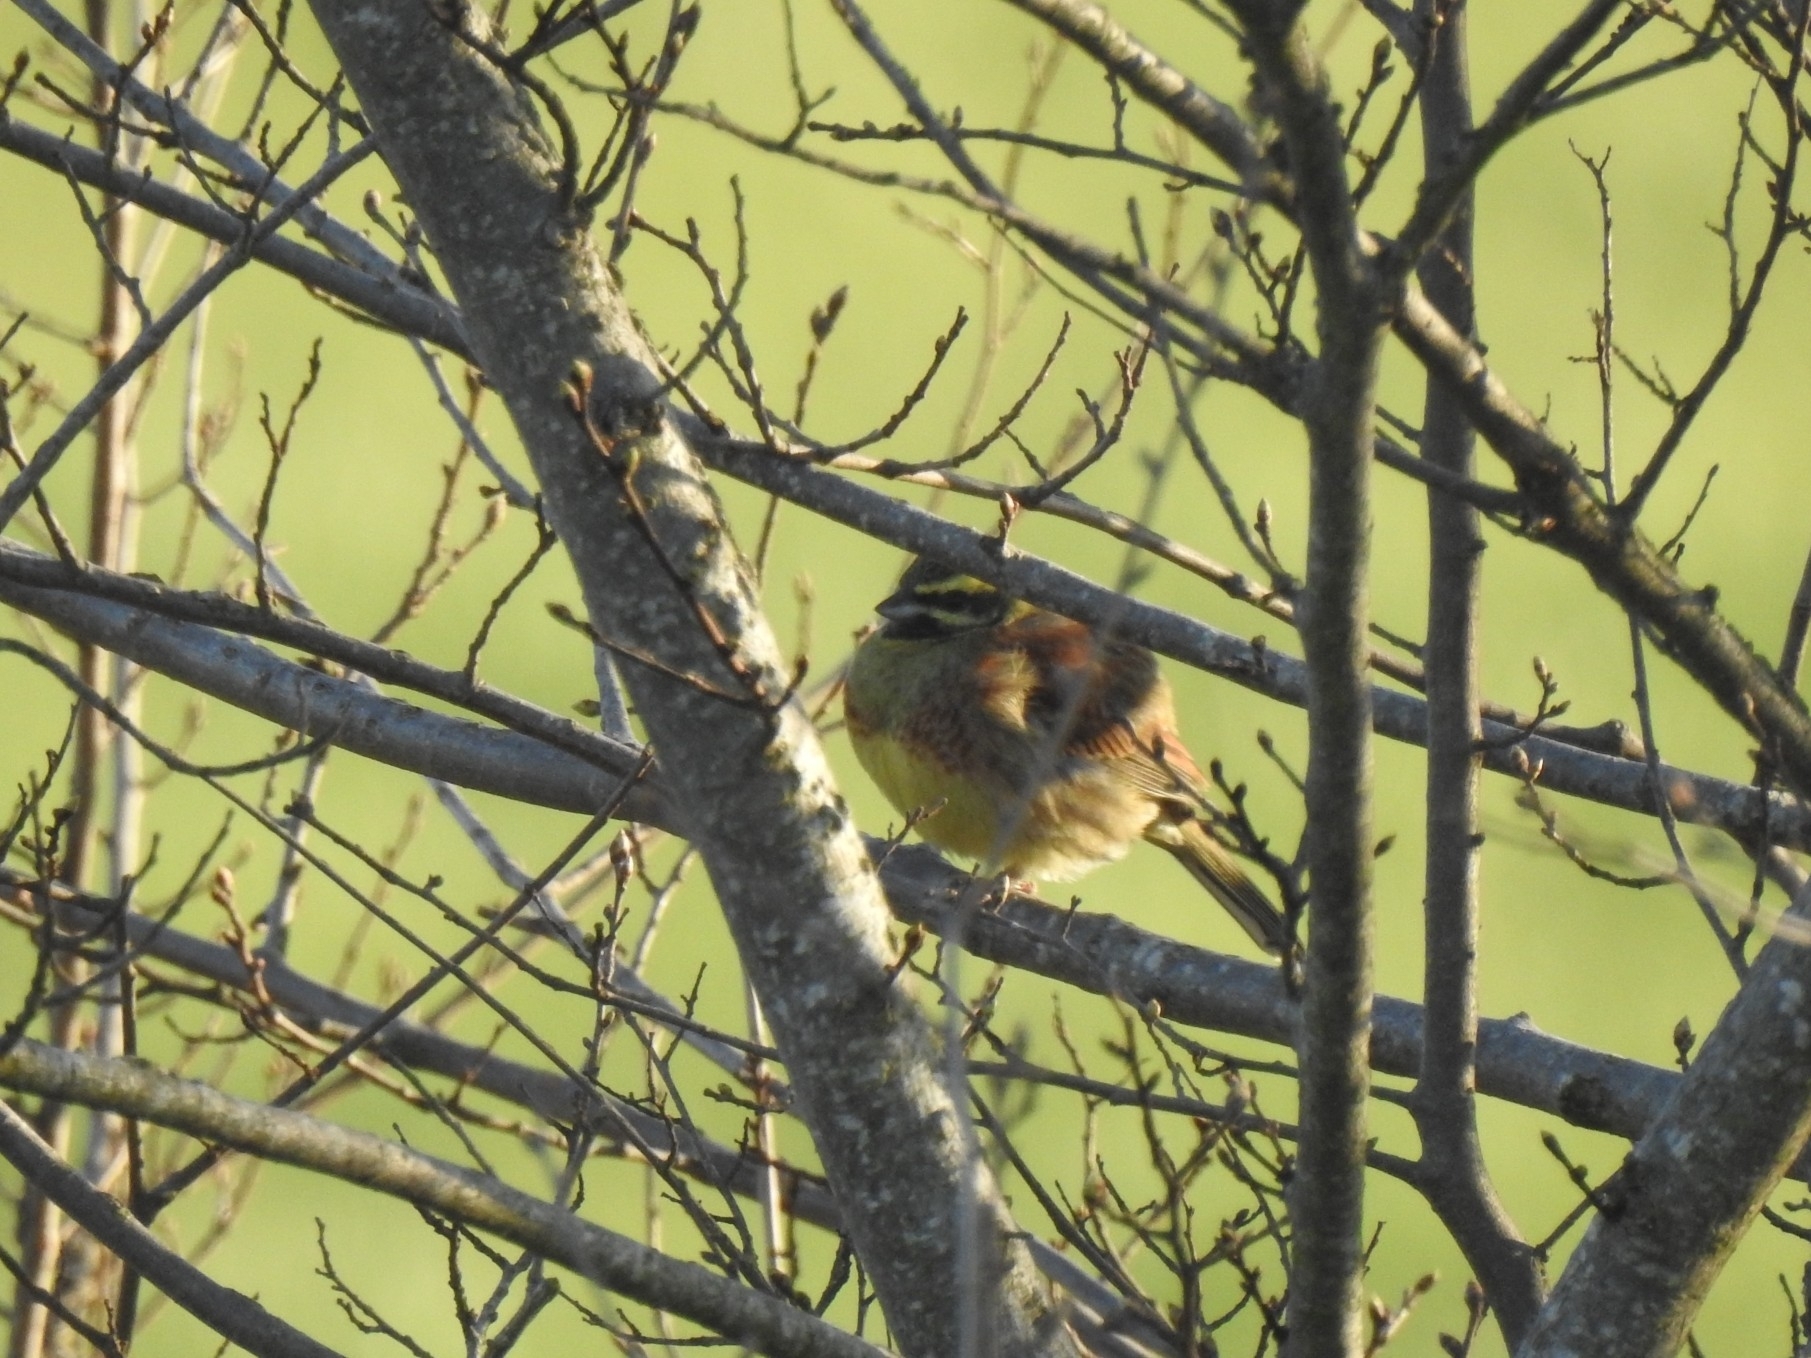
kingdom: Animalia
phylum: Chordata
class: Aves
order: Passeriformes
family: Emberizidae
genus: Emberiza
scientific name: Emberiza cirlus
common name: Cirl bunting
